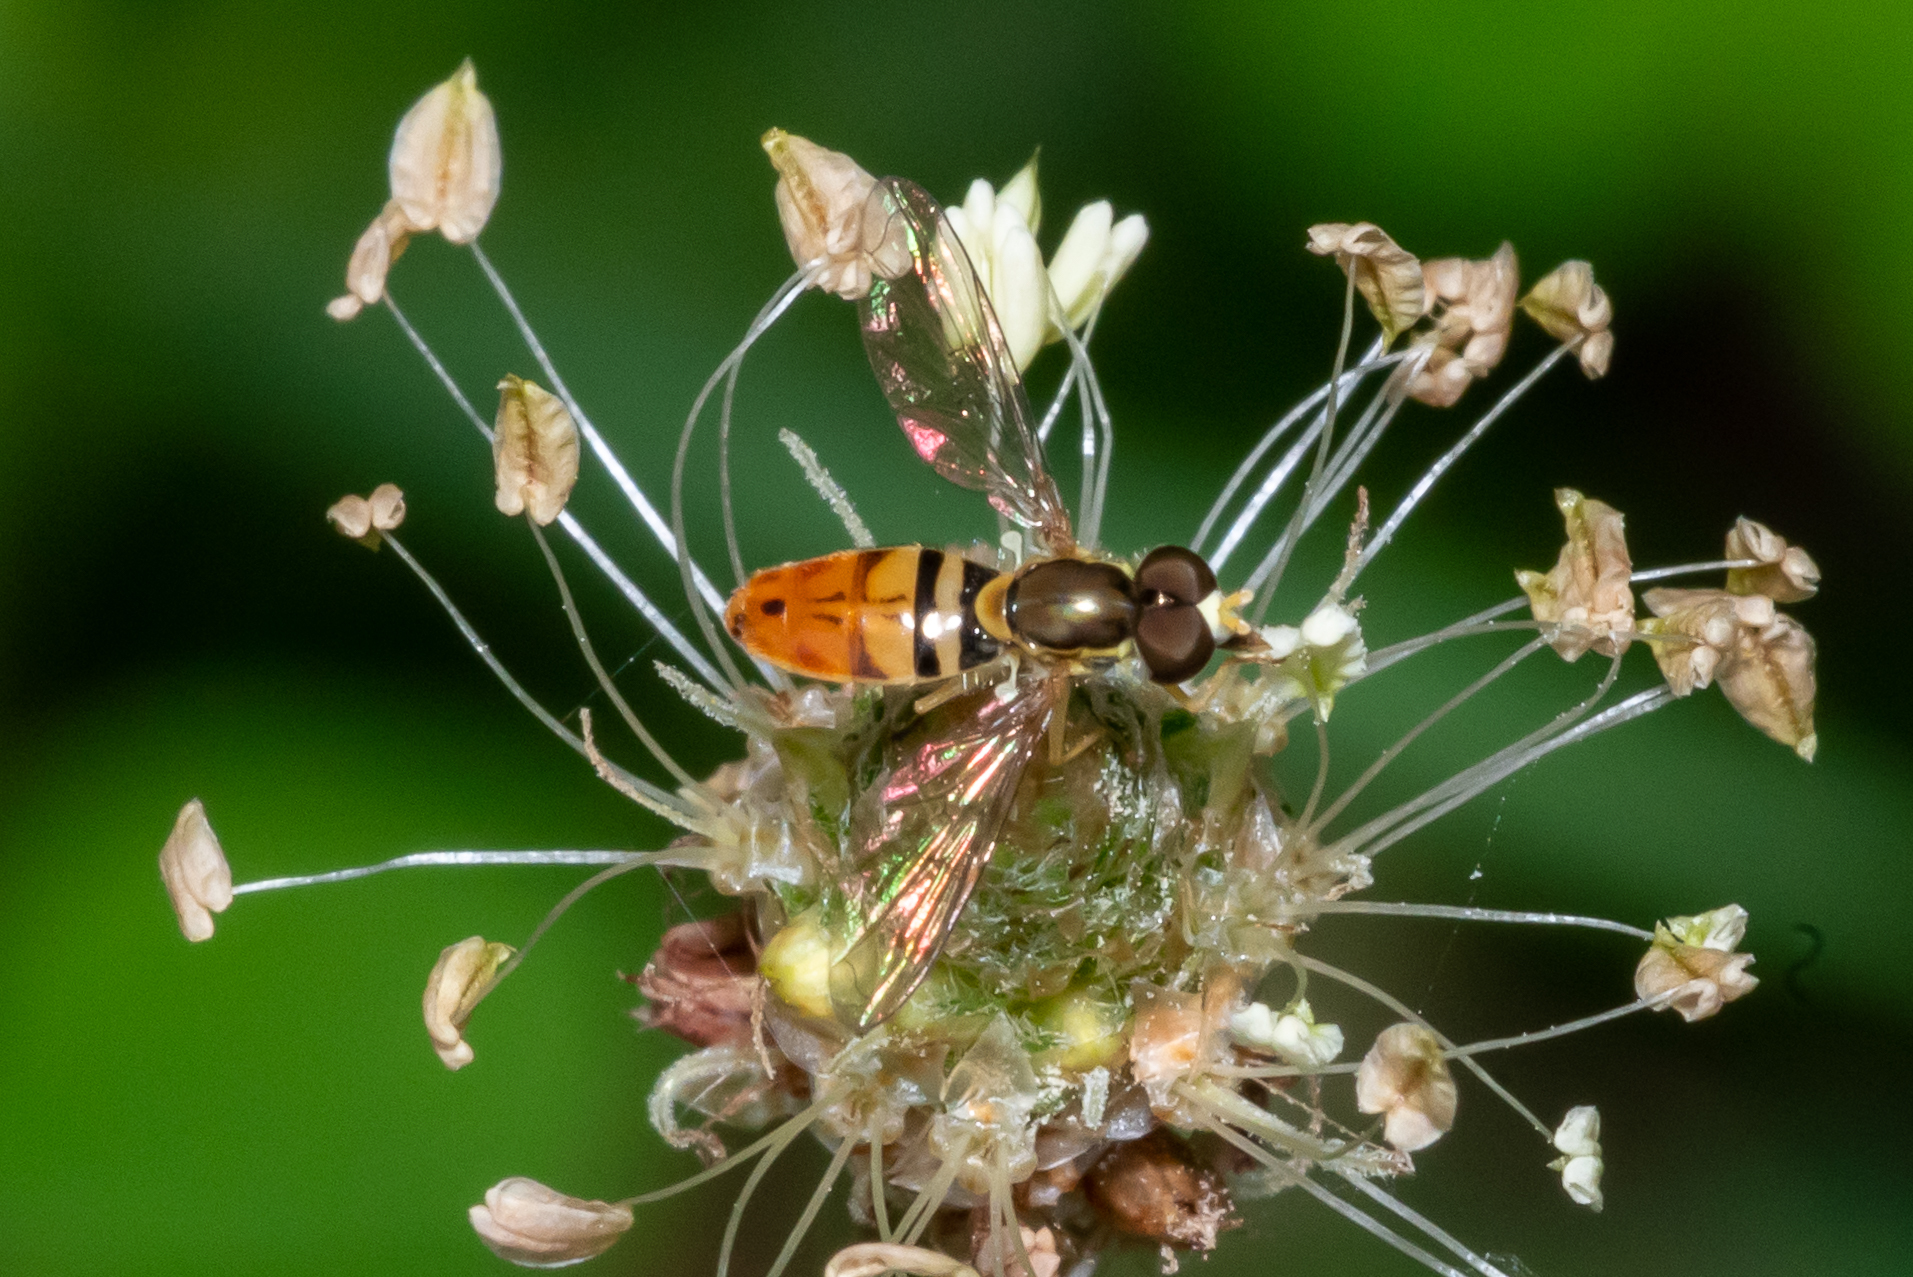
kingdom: Animalia
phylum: Arthropoda
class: Insecta
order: Diptera
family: Syrphidae
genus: Toxomerus
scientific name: Toxomerus marginatus
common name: Syrphid fly
